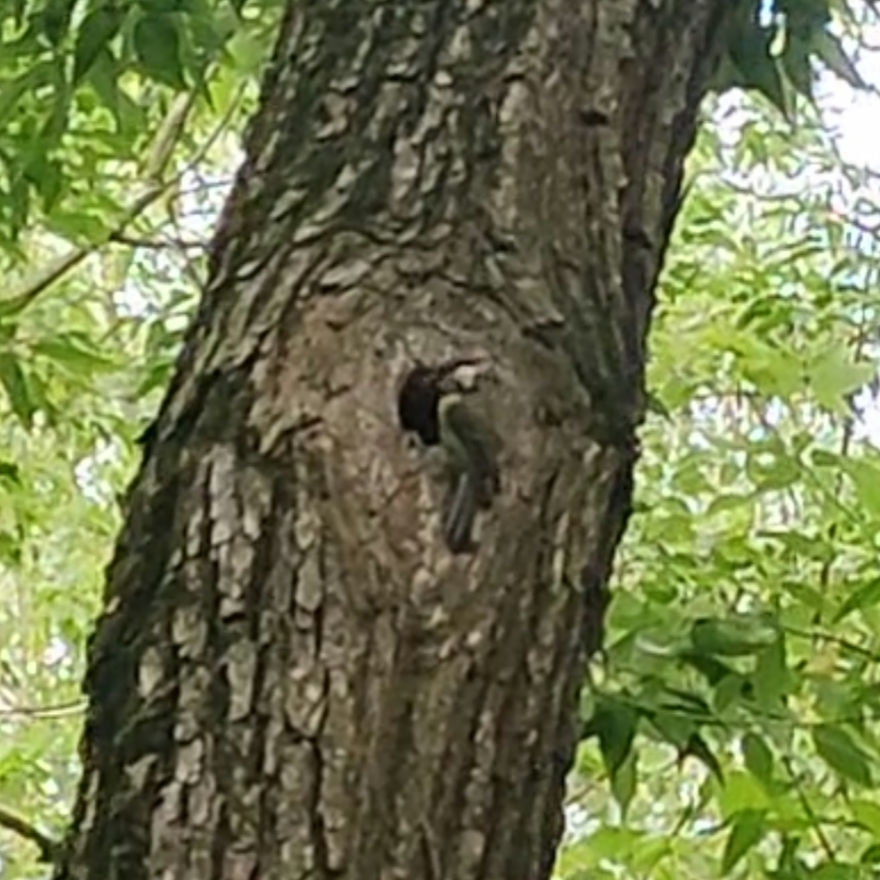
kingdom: Animalia
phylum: Chordata
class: Aves
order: Passeriformes
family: Paridae
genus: Parus
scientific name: Parus major
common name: Great tit
